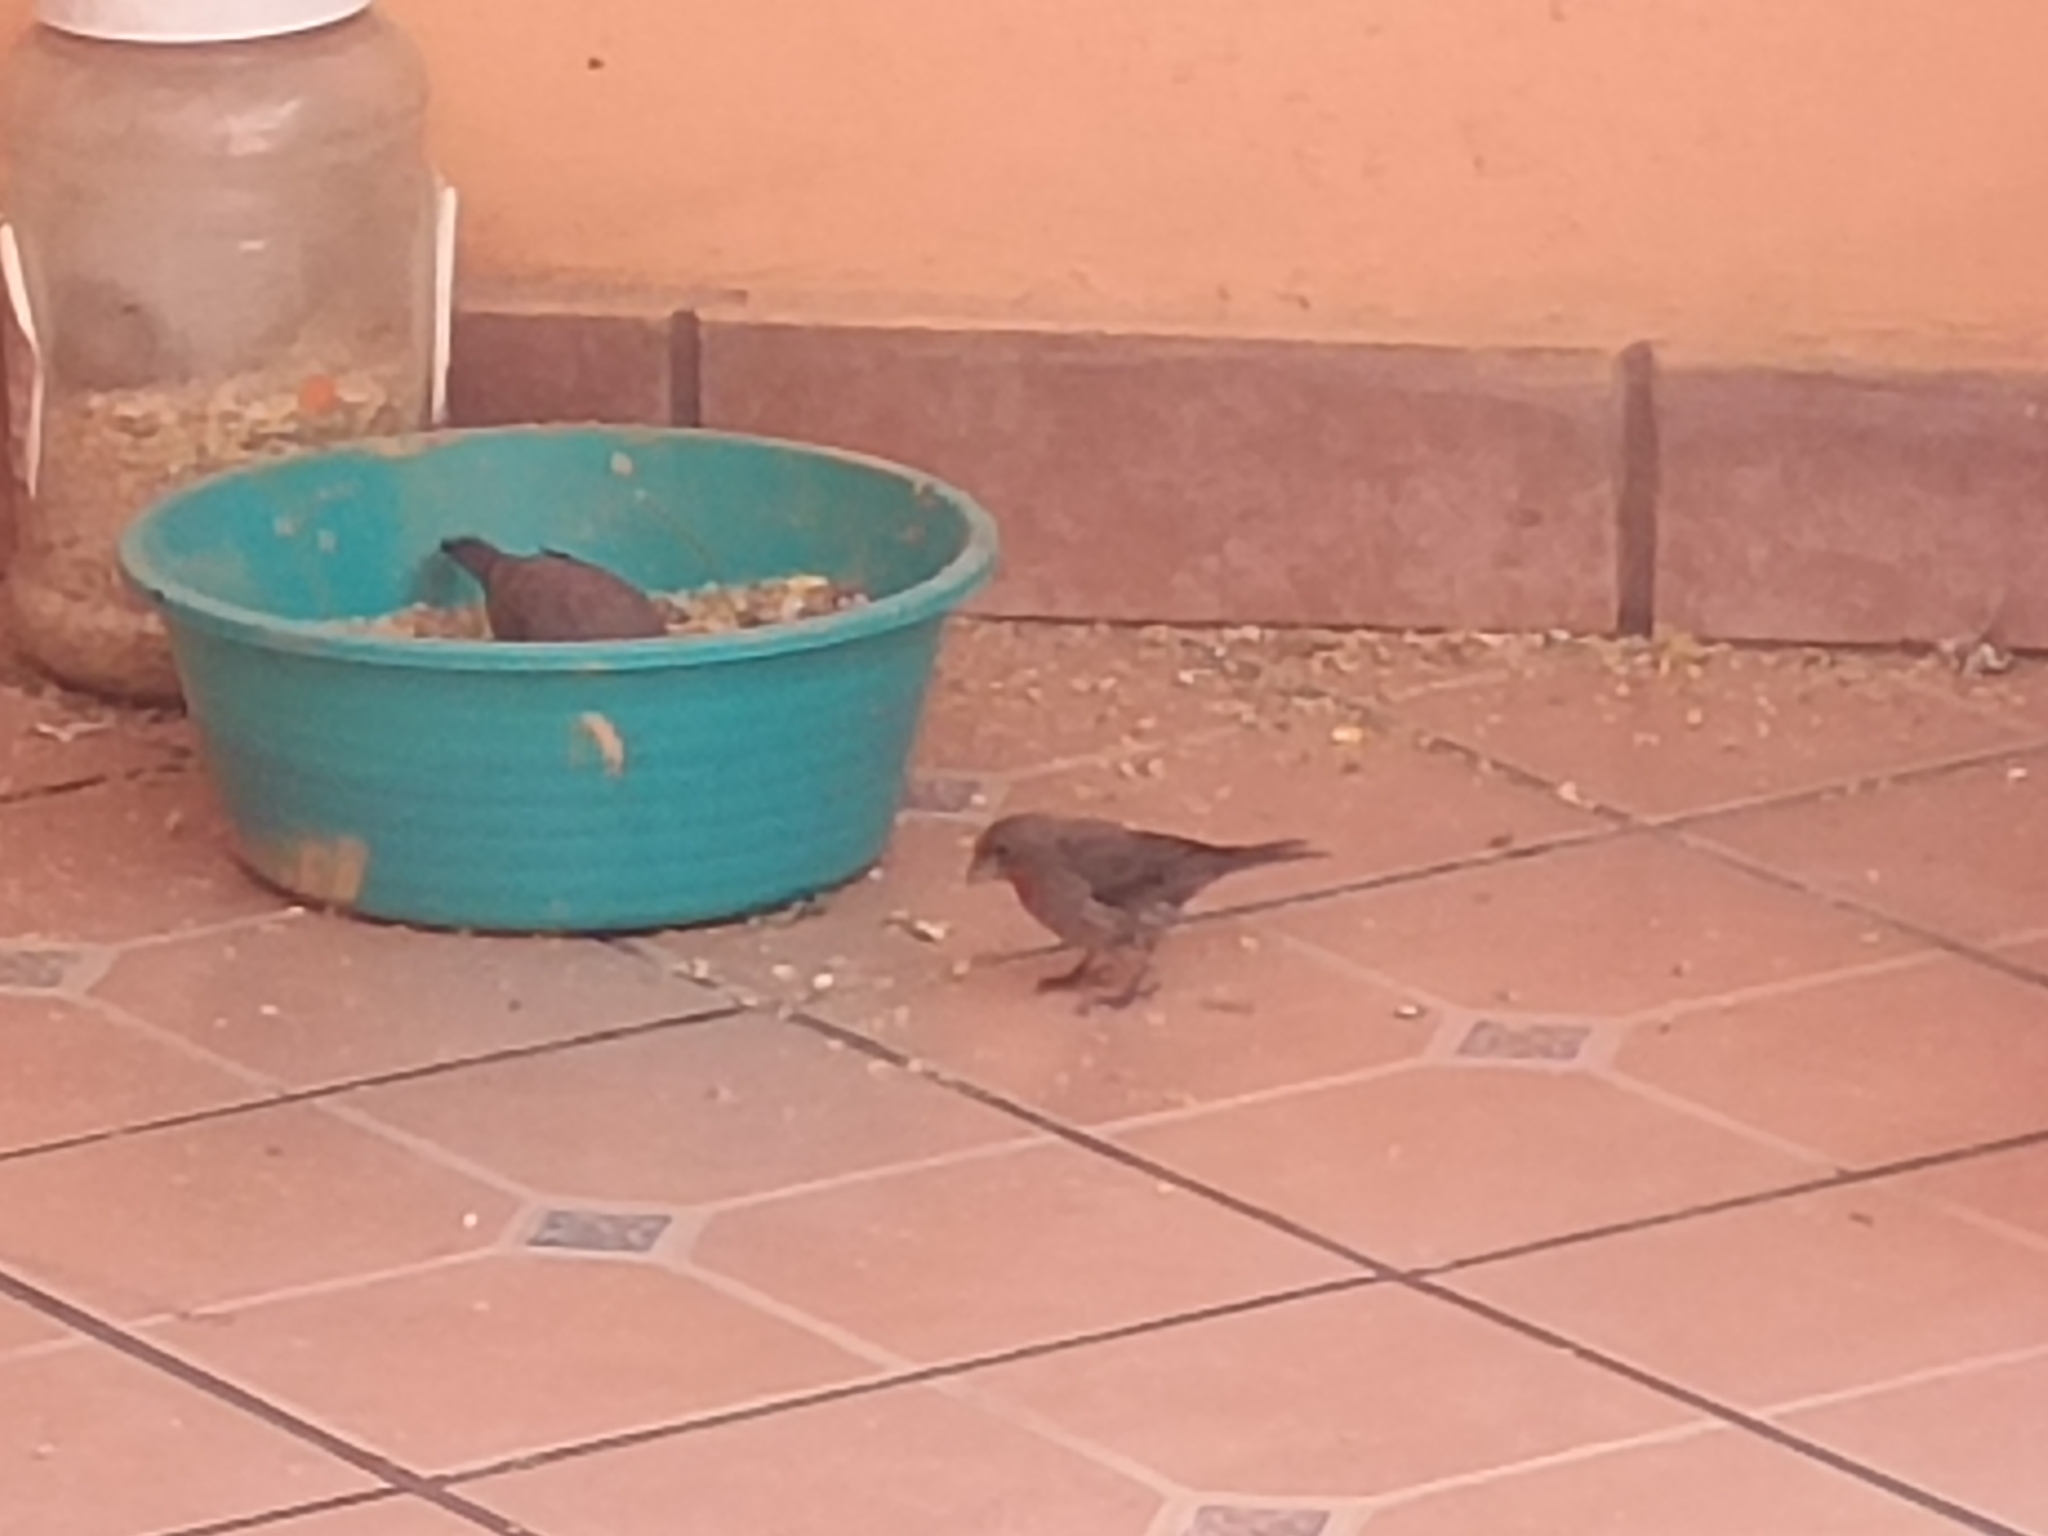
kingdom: Animalia
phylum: Chordata
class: Aves
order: Passeriformes
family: Fringillidae
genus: Haemorhous
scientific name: Haemorhous mexicanus
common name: House finch
